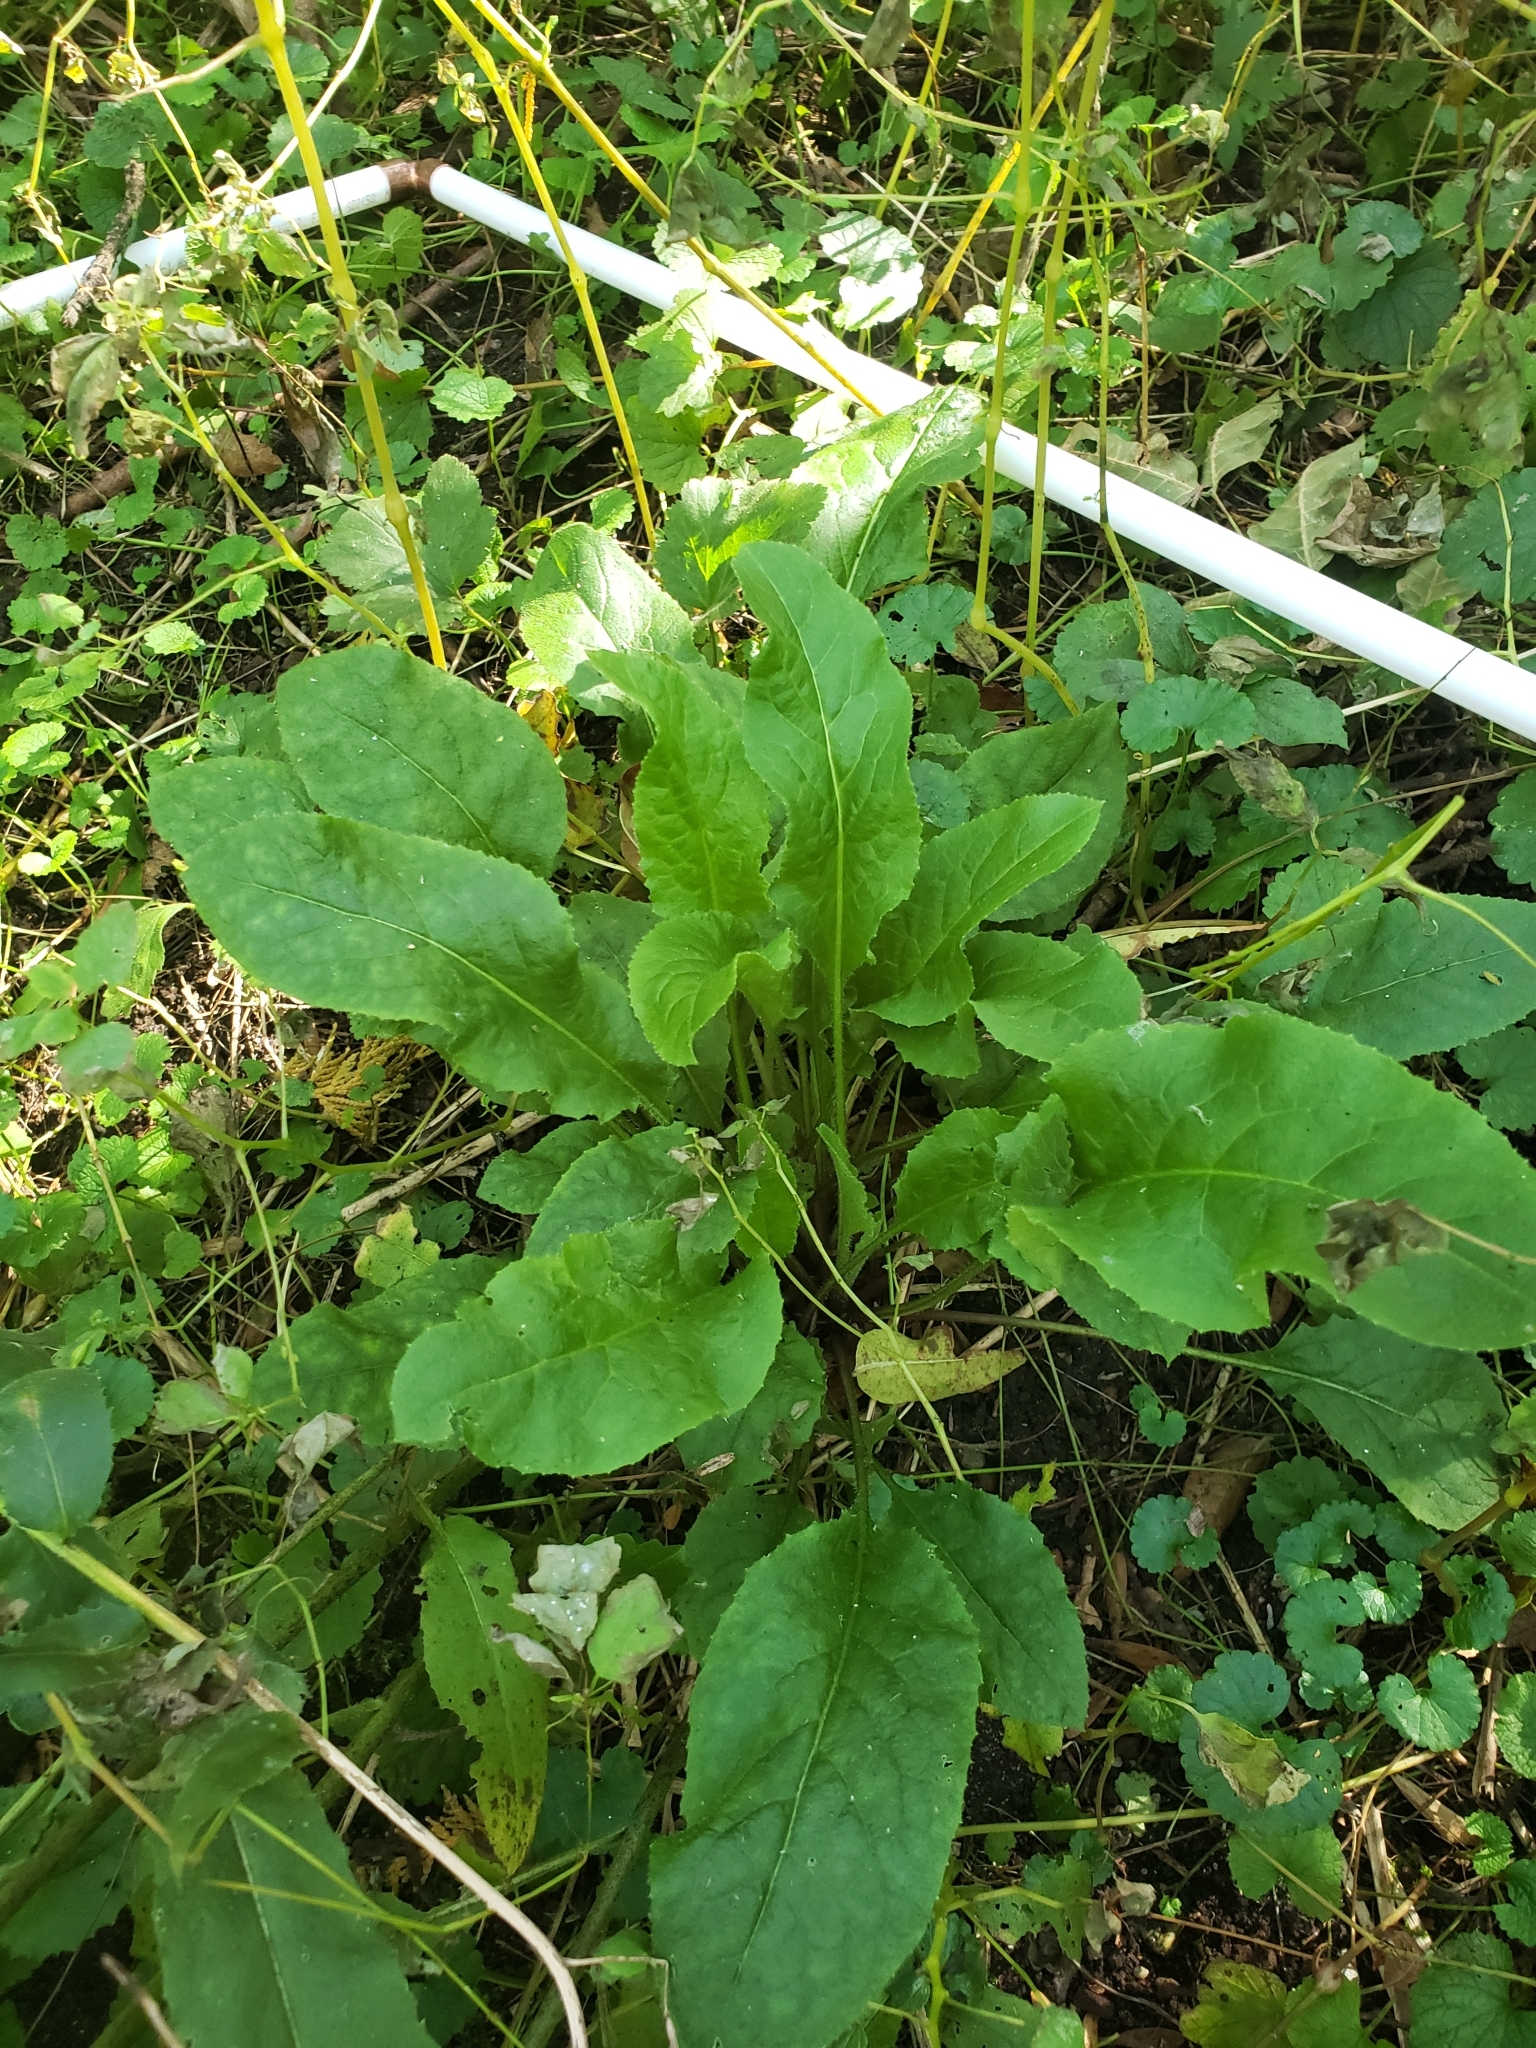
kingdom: Plantae
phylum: Tracheophyta
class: Magnoliopsida
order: Brassicales
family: Brassicaceae
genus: Hesperis
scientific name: Hesperis matronalis
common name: Dame's-violet
